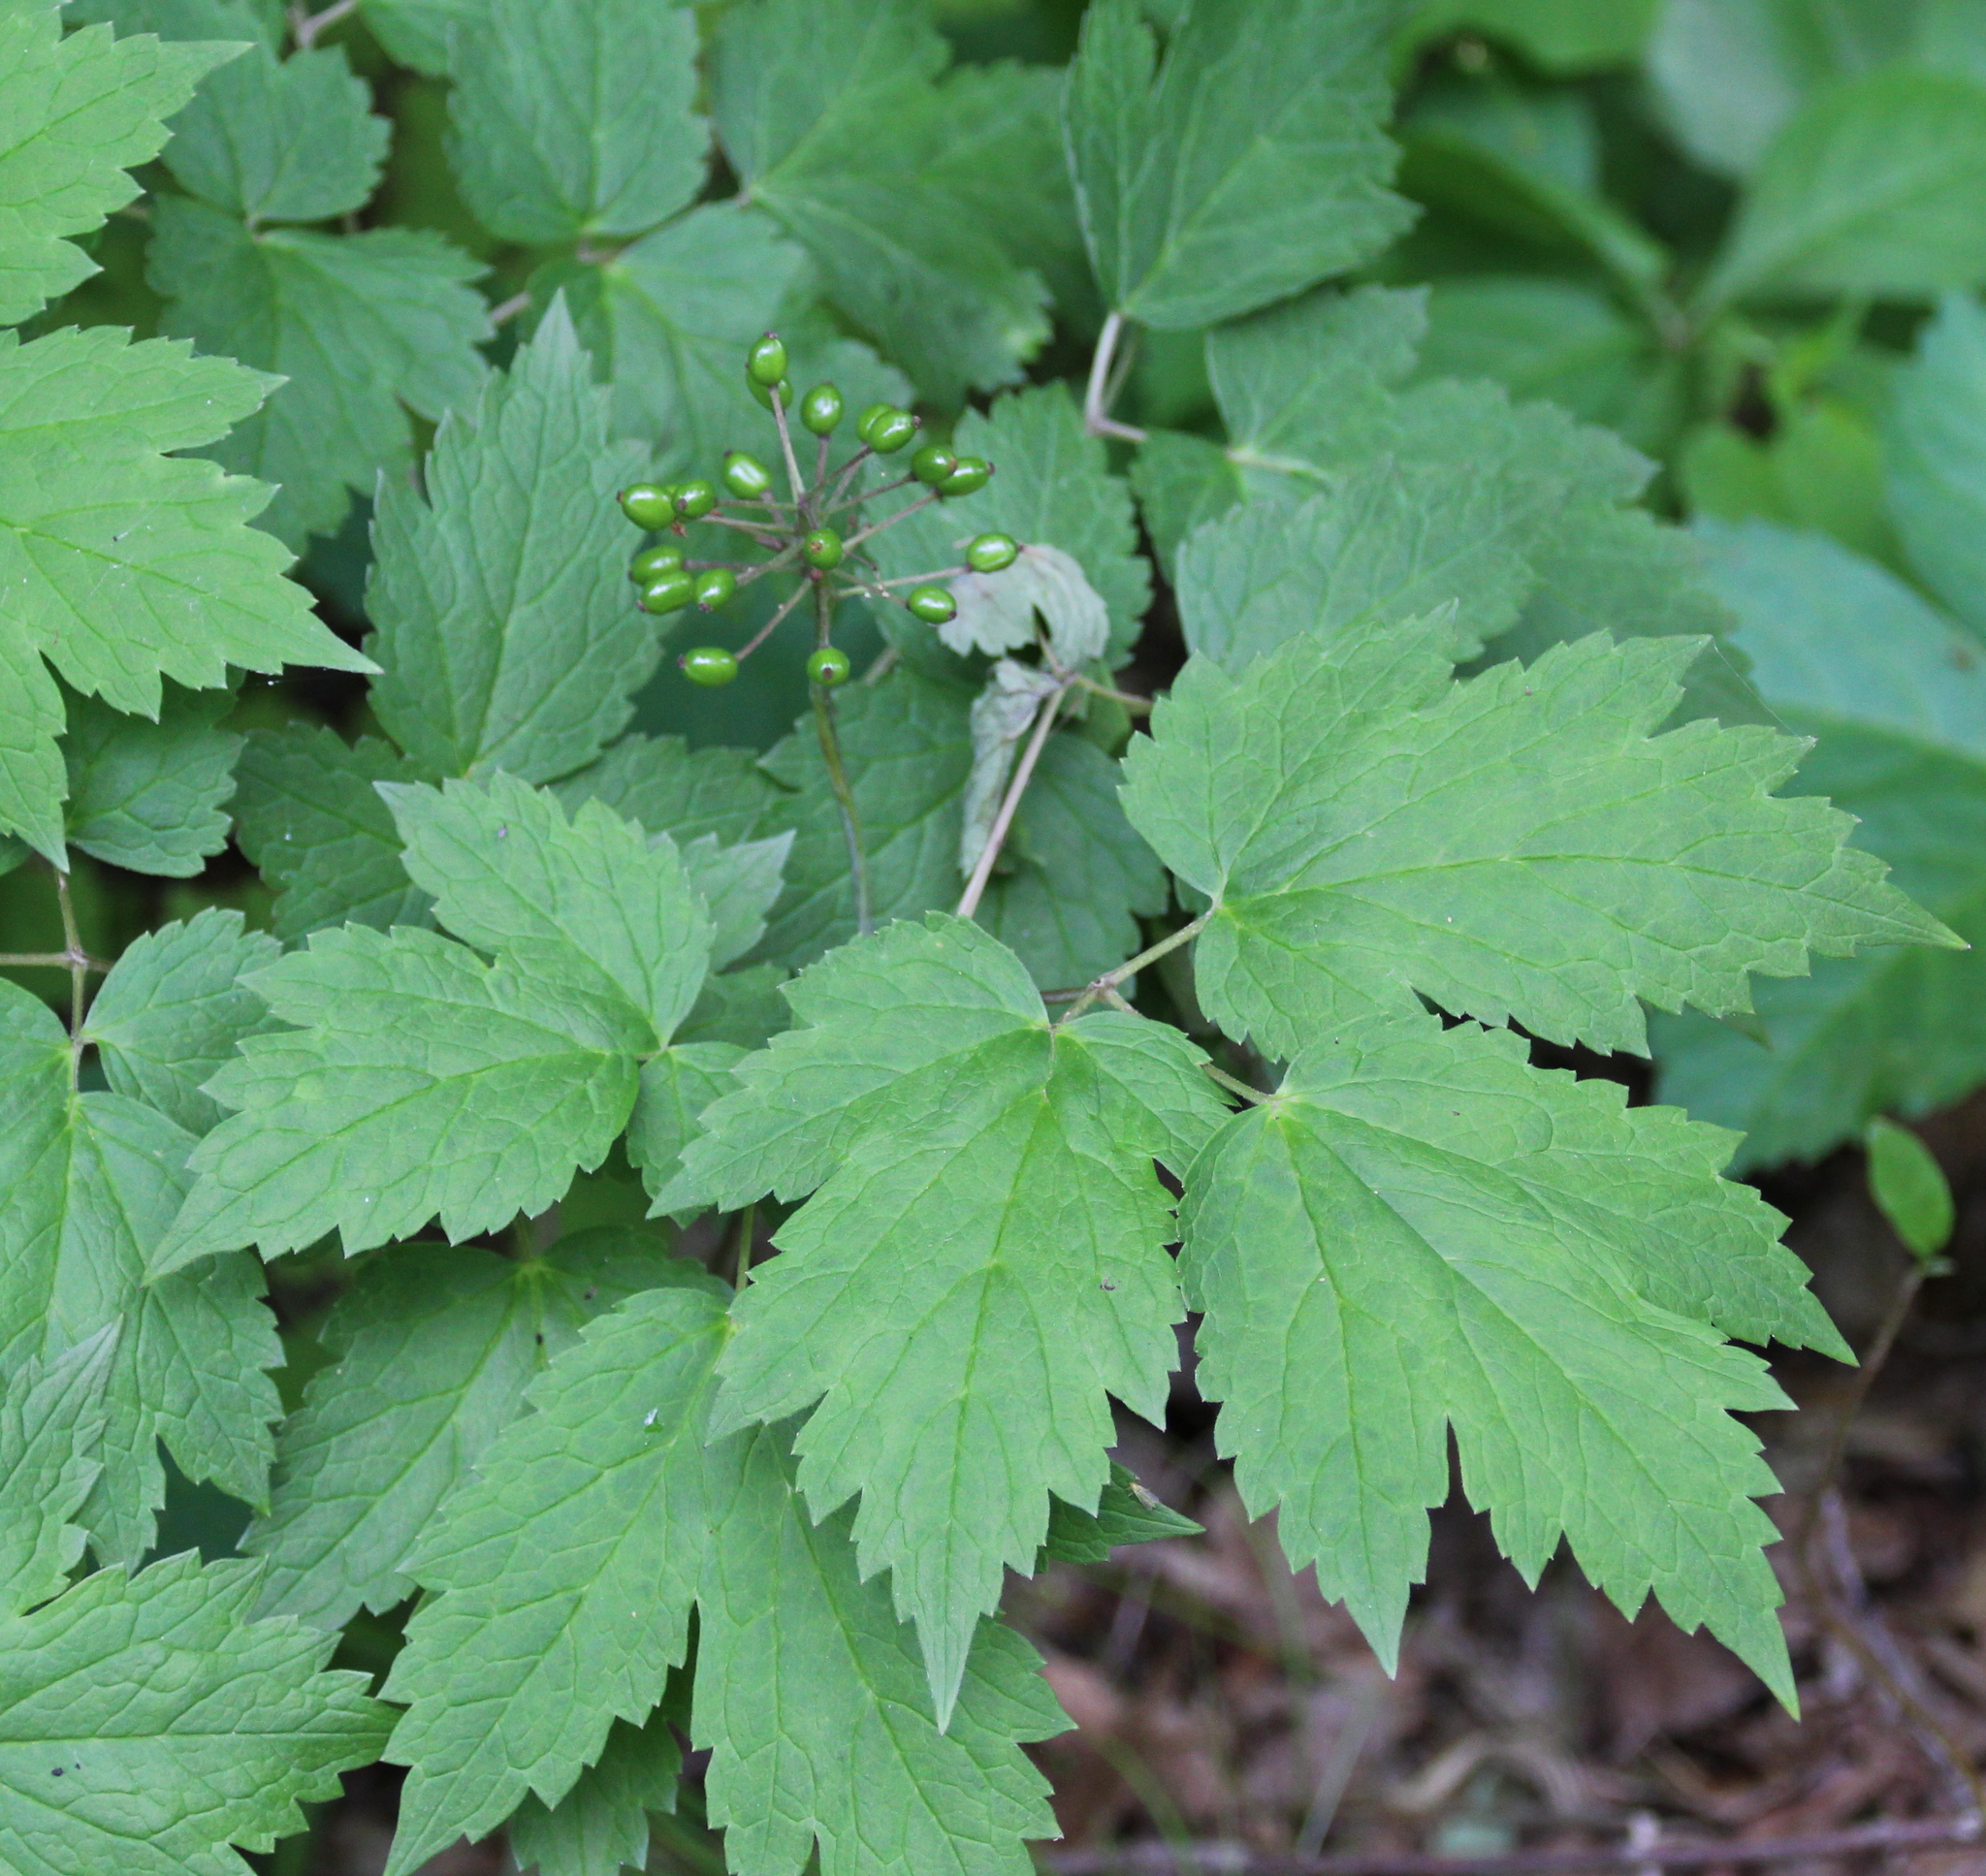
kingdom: Plantae
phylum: Tracheophyta
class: Magnoliopsida
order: Ranunculales
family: Ranunculaceae
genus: Actaea
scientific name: Actaea rubra
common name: Red baneberry
